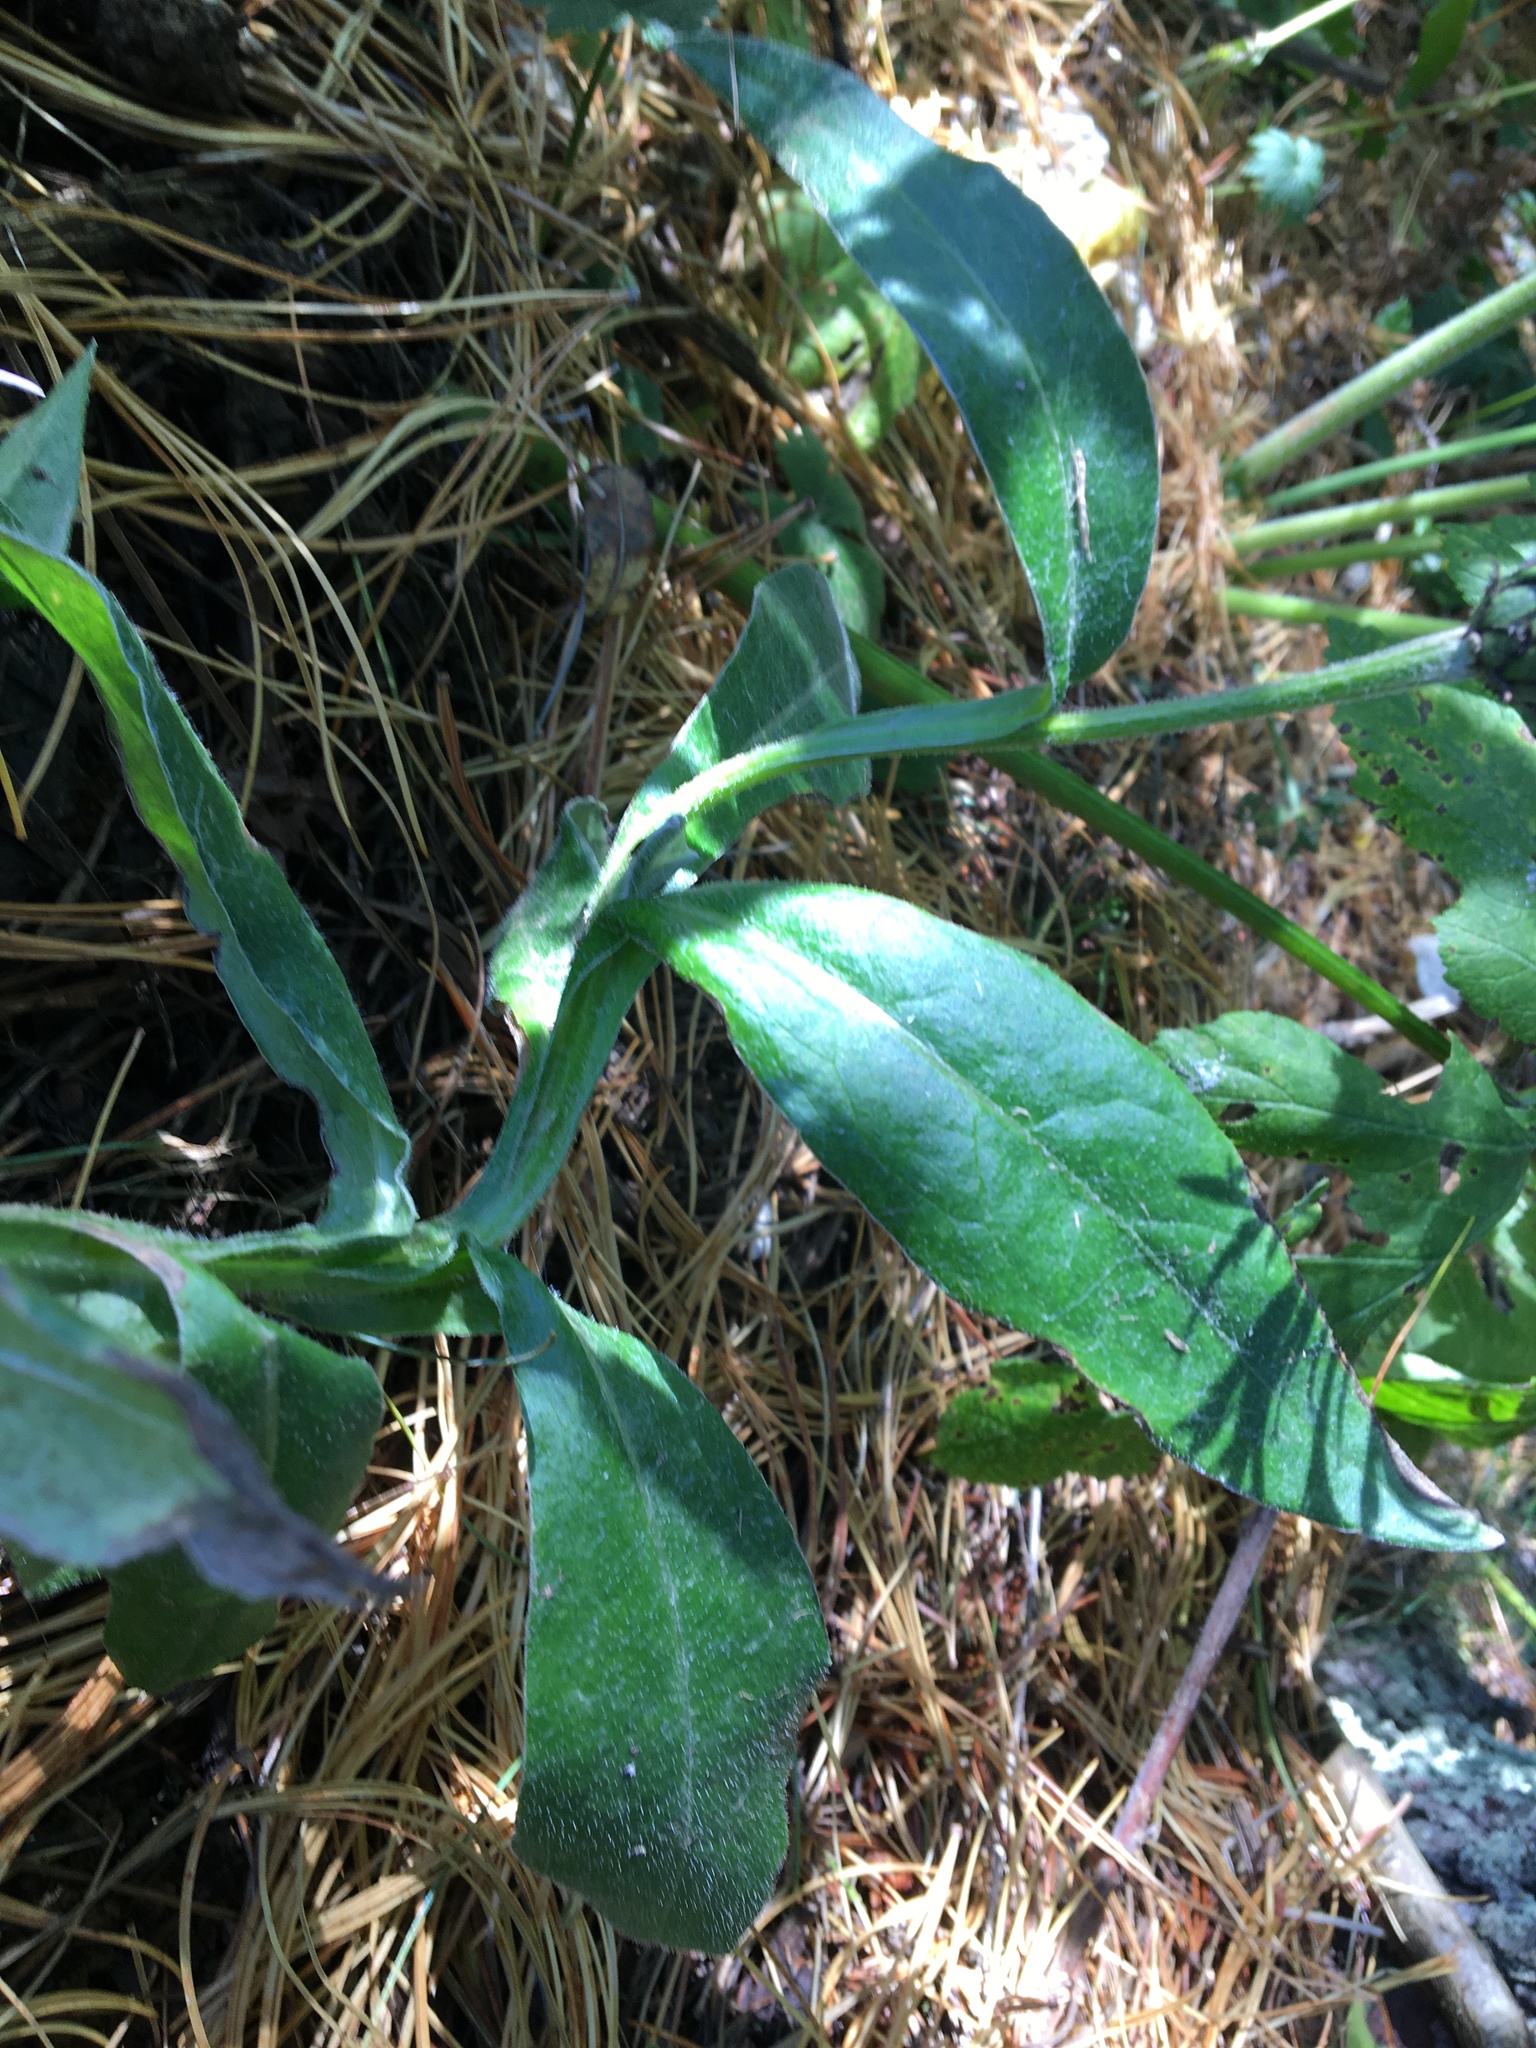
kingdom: Plantae
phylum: Tracheophyta
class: Magnoliopsida
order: Asterales
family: Asteraceae
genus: Centaurea
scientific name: Centaurea montana
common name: Perennial cornflower
